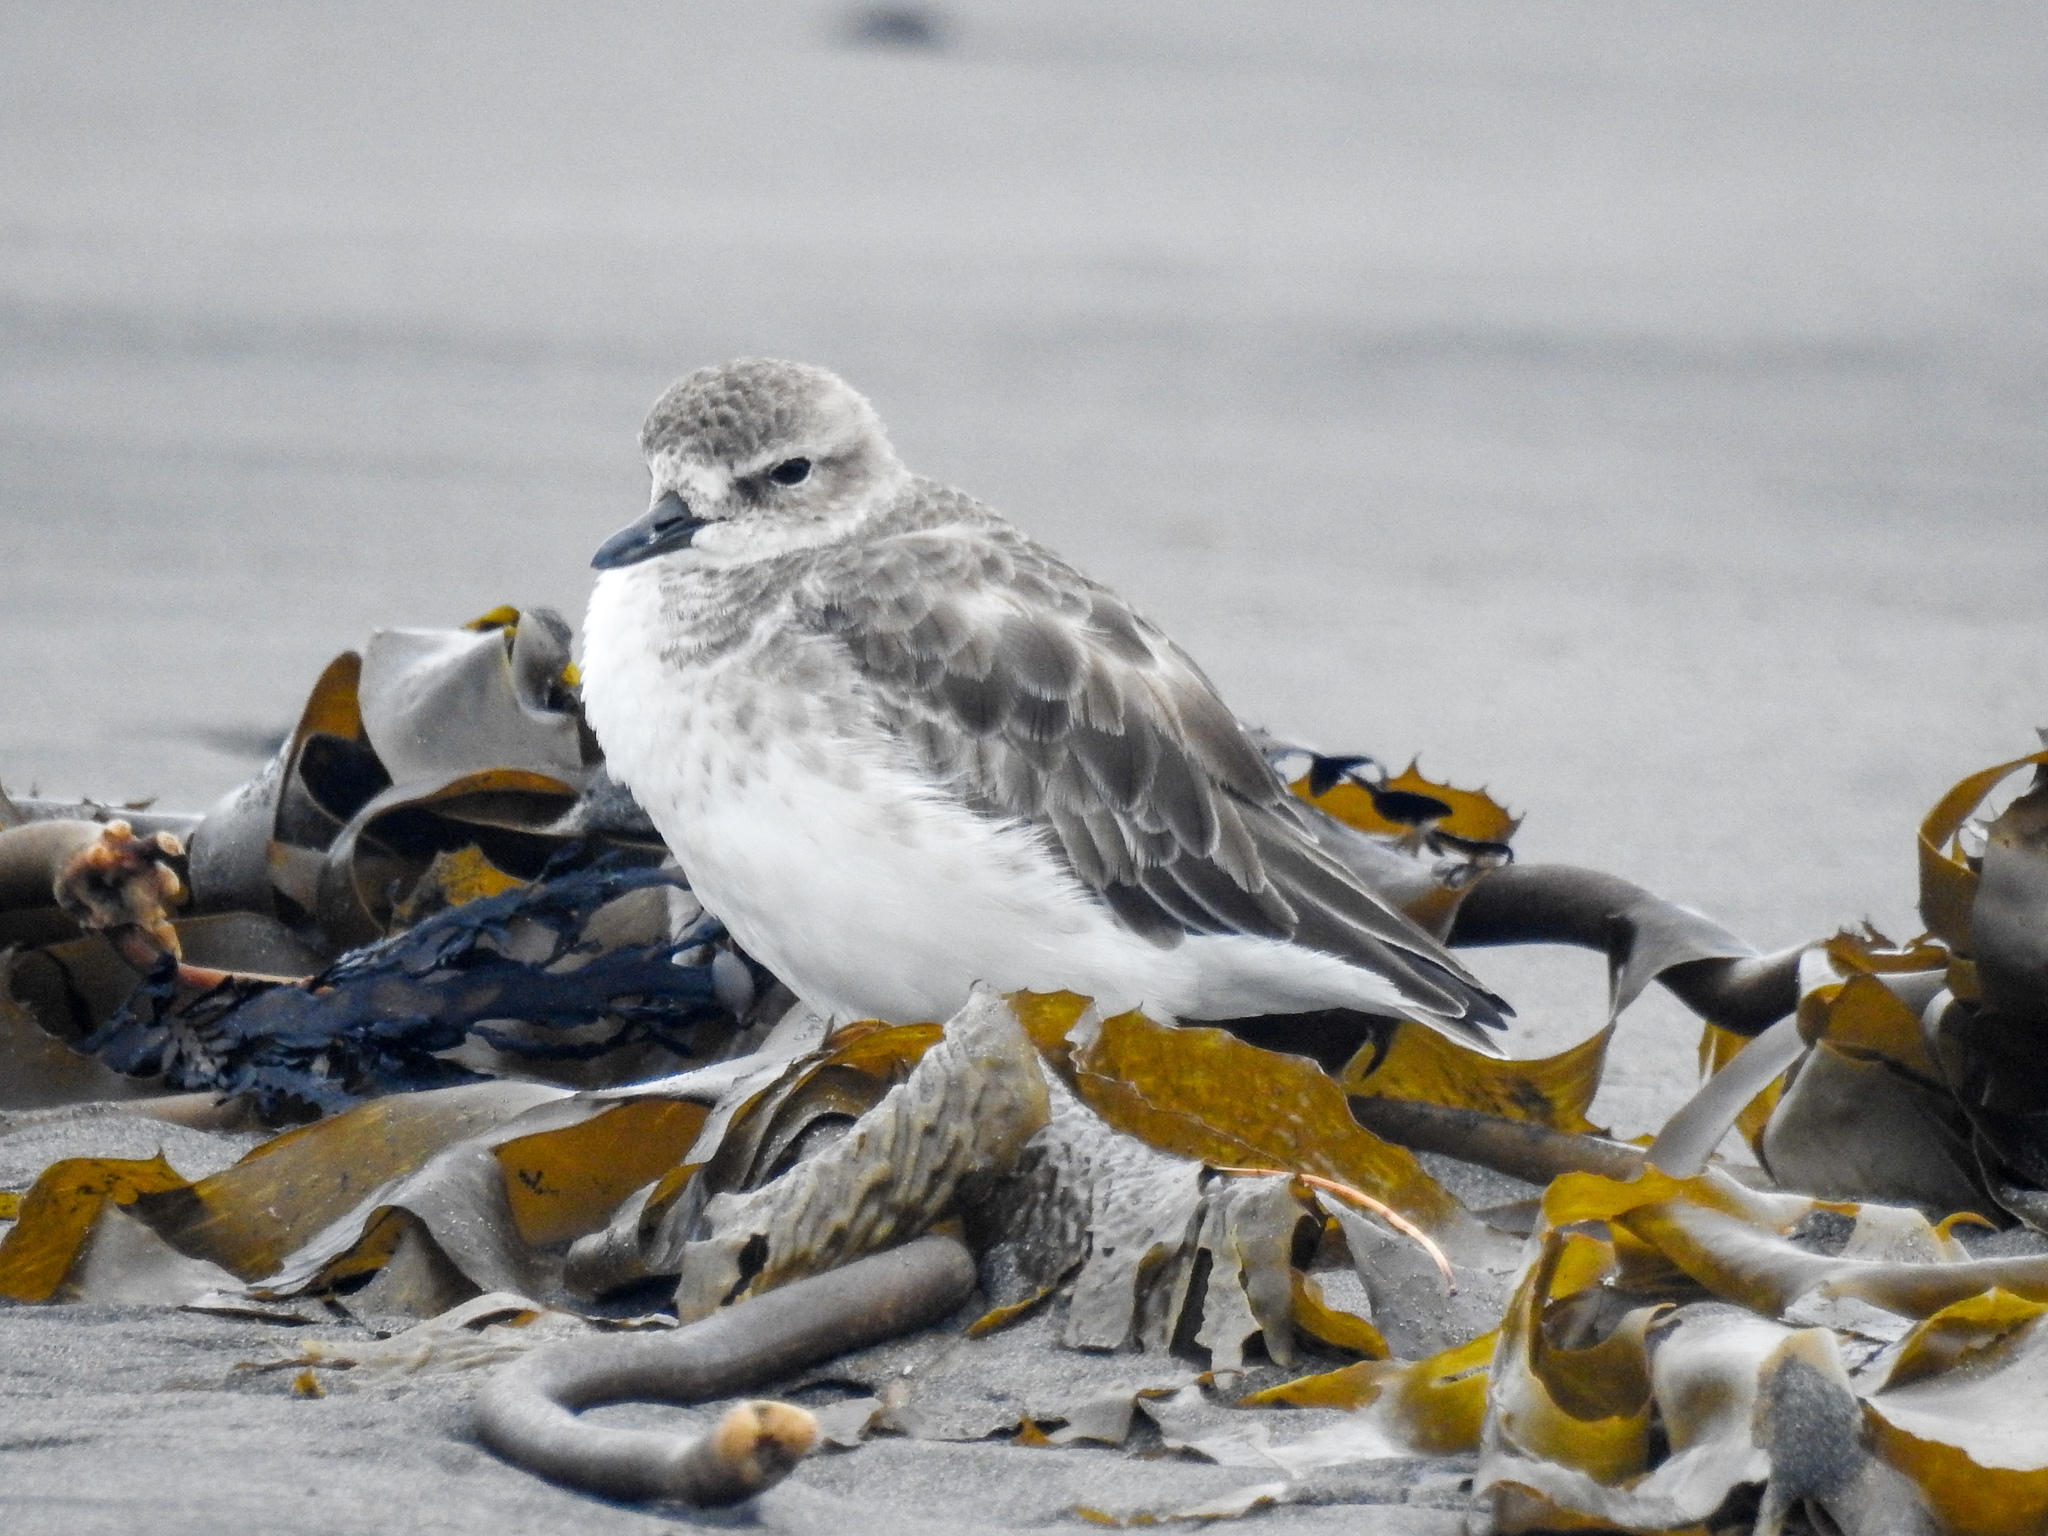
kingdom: Animalia
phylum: Chordata
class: Aves
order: Charadriiformes
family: Charadriidae
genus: Anarhynchus
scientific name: Anarhynchus
